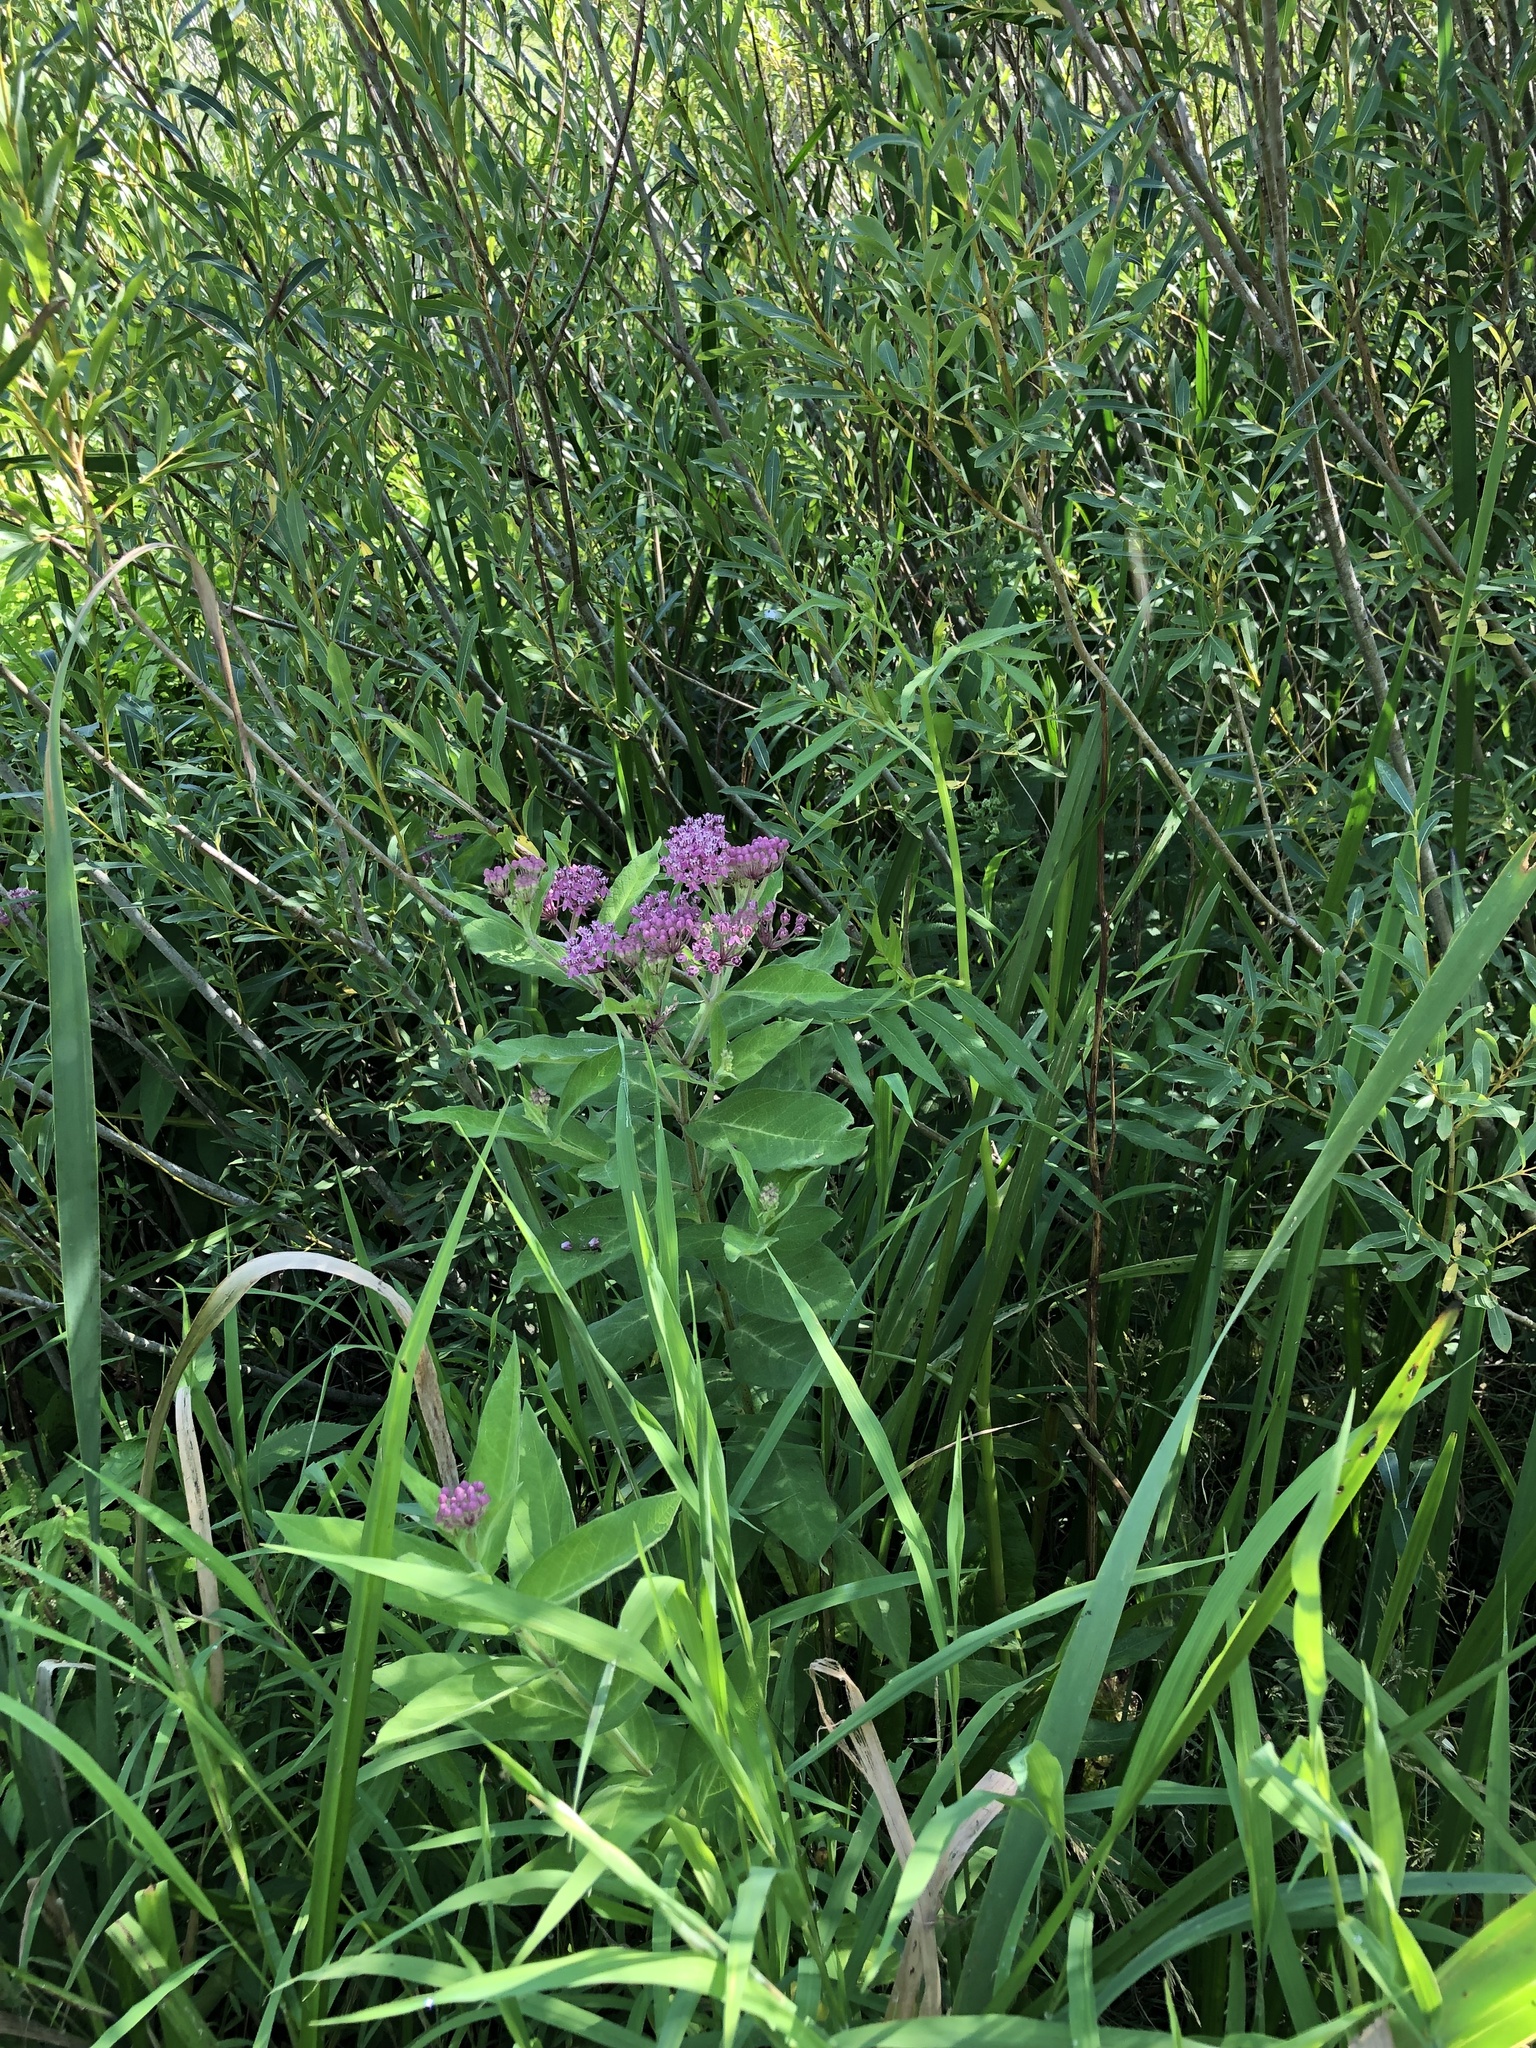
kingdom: Plantae
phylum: Tracheophyta
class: Magnoliopsida
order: Gentianales
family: Apocynaceae
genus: Asclepias
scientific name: Asclepias incarnata
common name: Swamp milkweed
